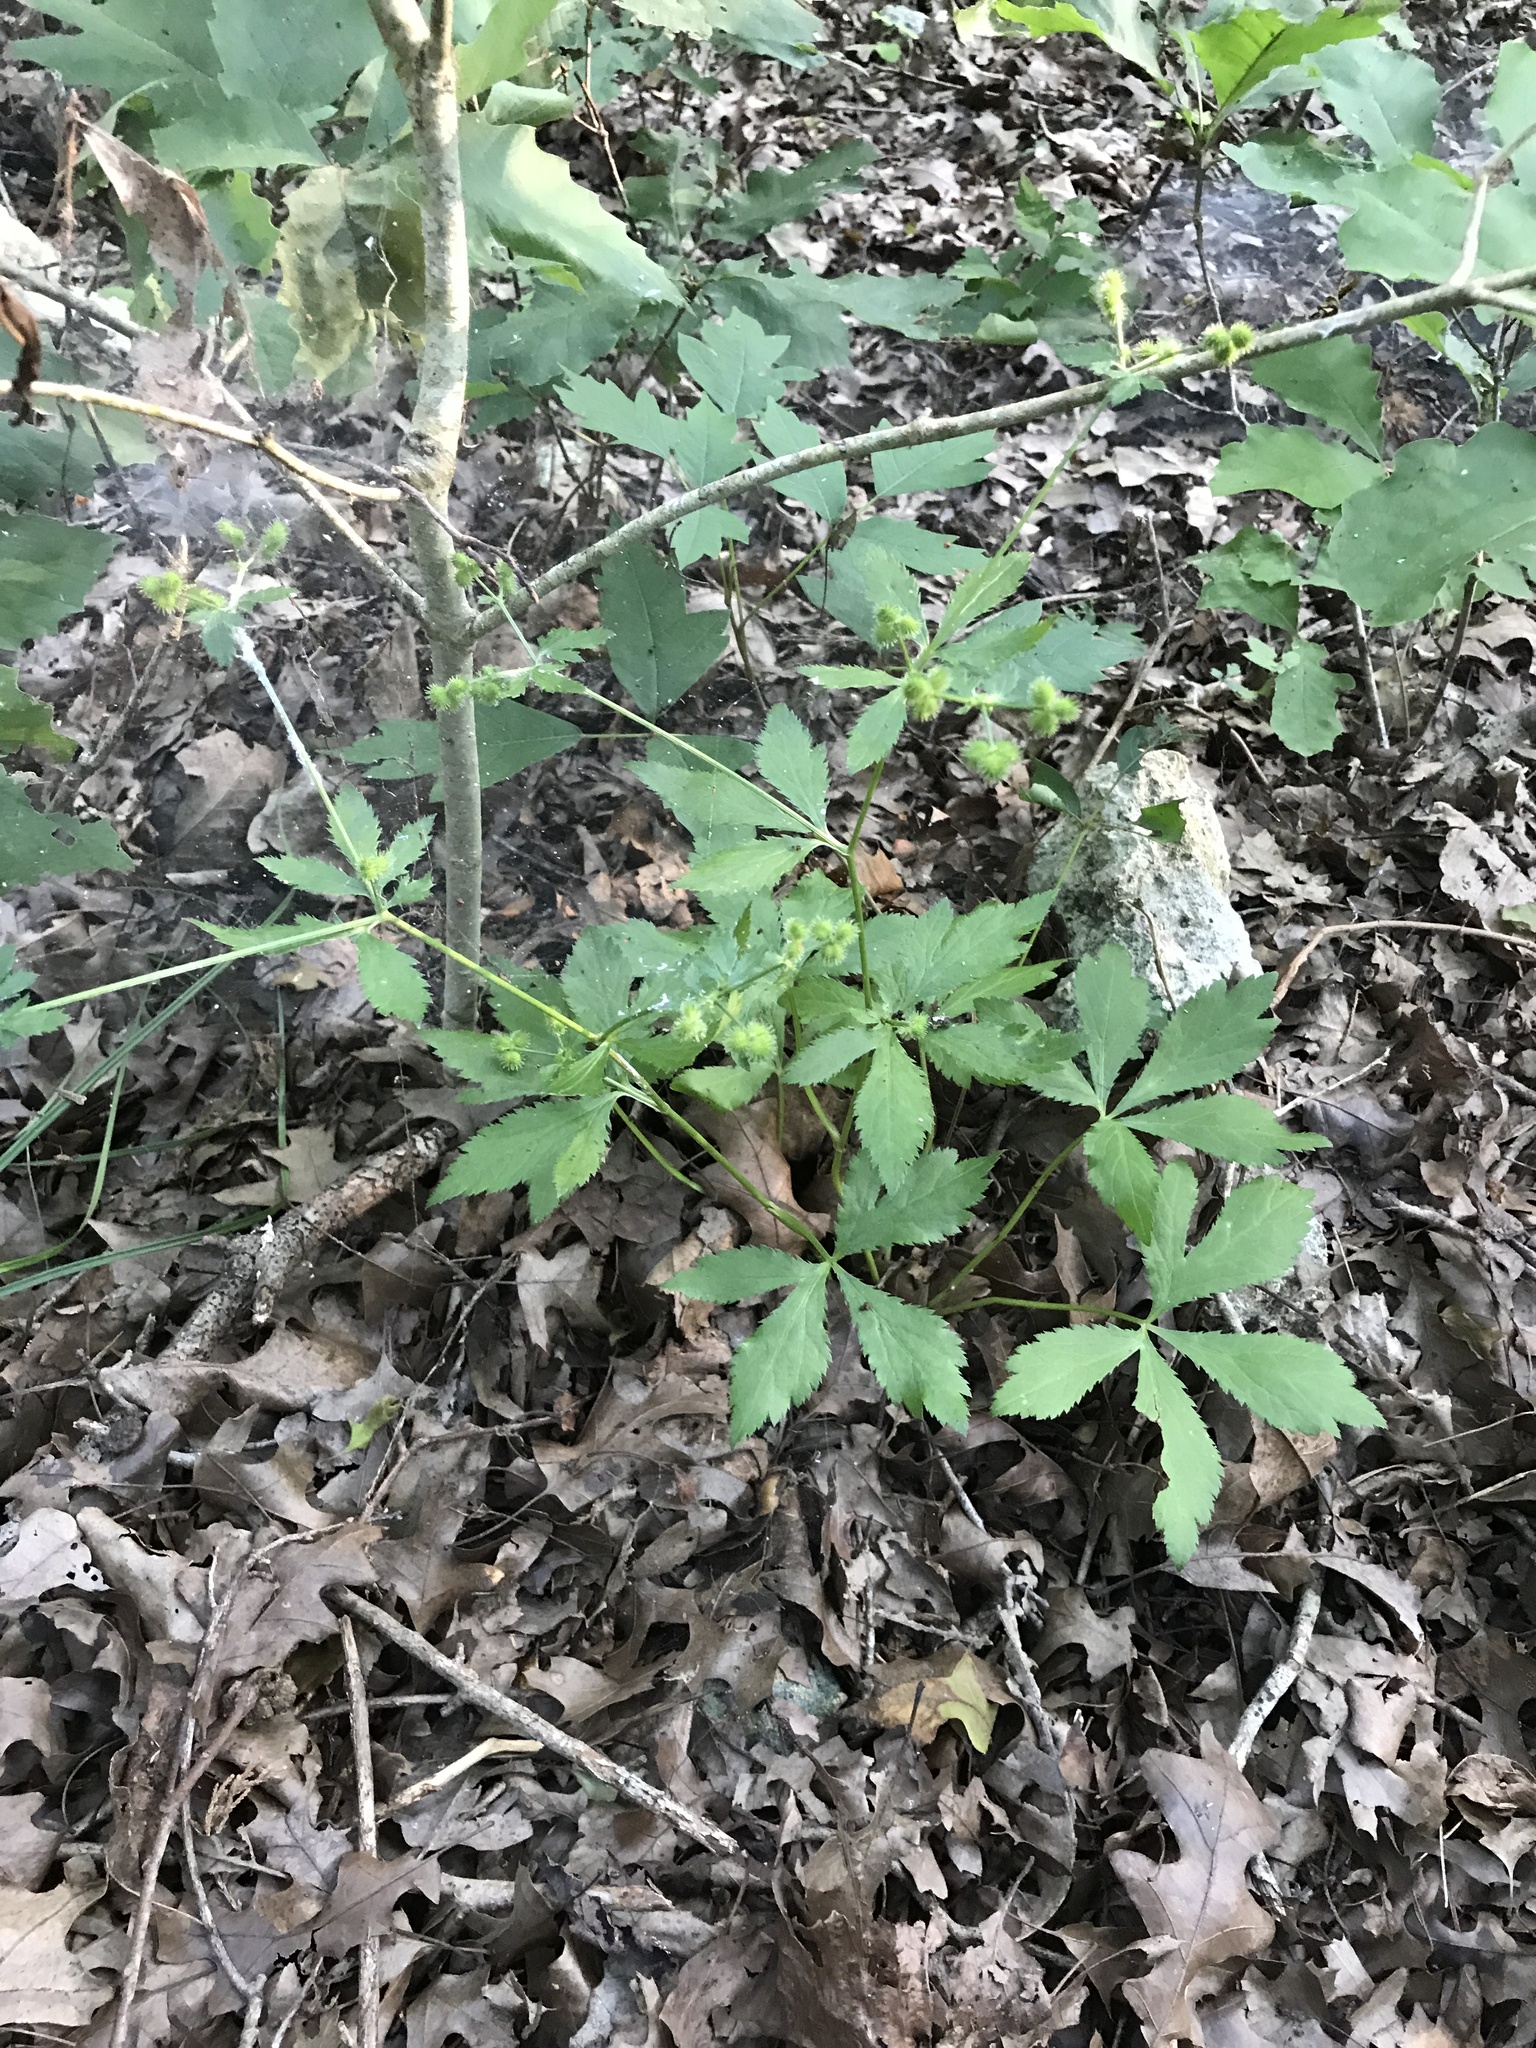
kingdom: Plantae
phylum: Tracheophyta
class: Magnoliopsida
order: Apiales
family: Apiaceae
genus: Sanicula
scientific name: Sanicula canadensis
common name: Canada sanicle
